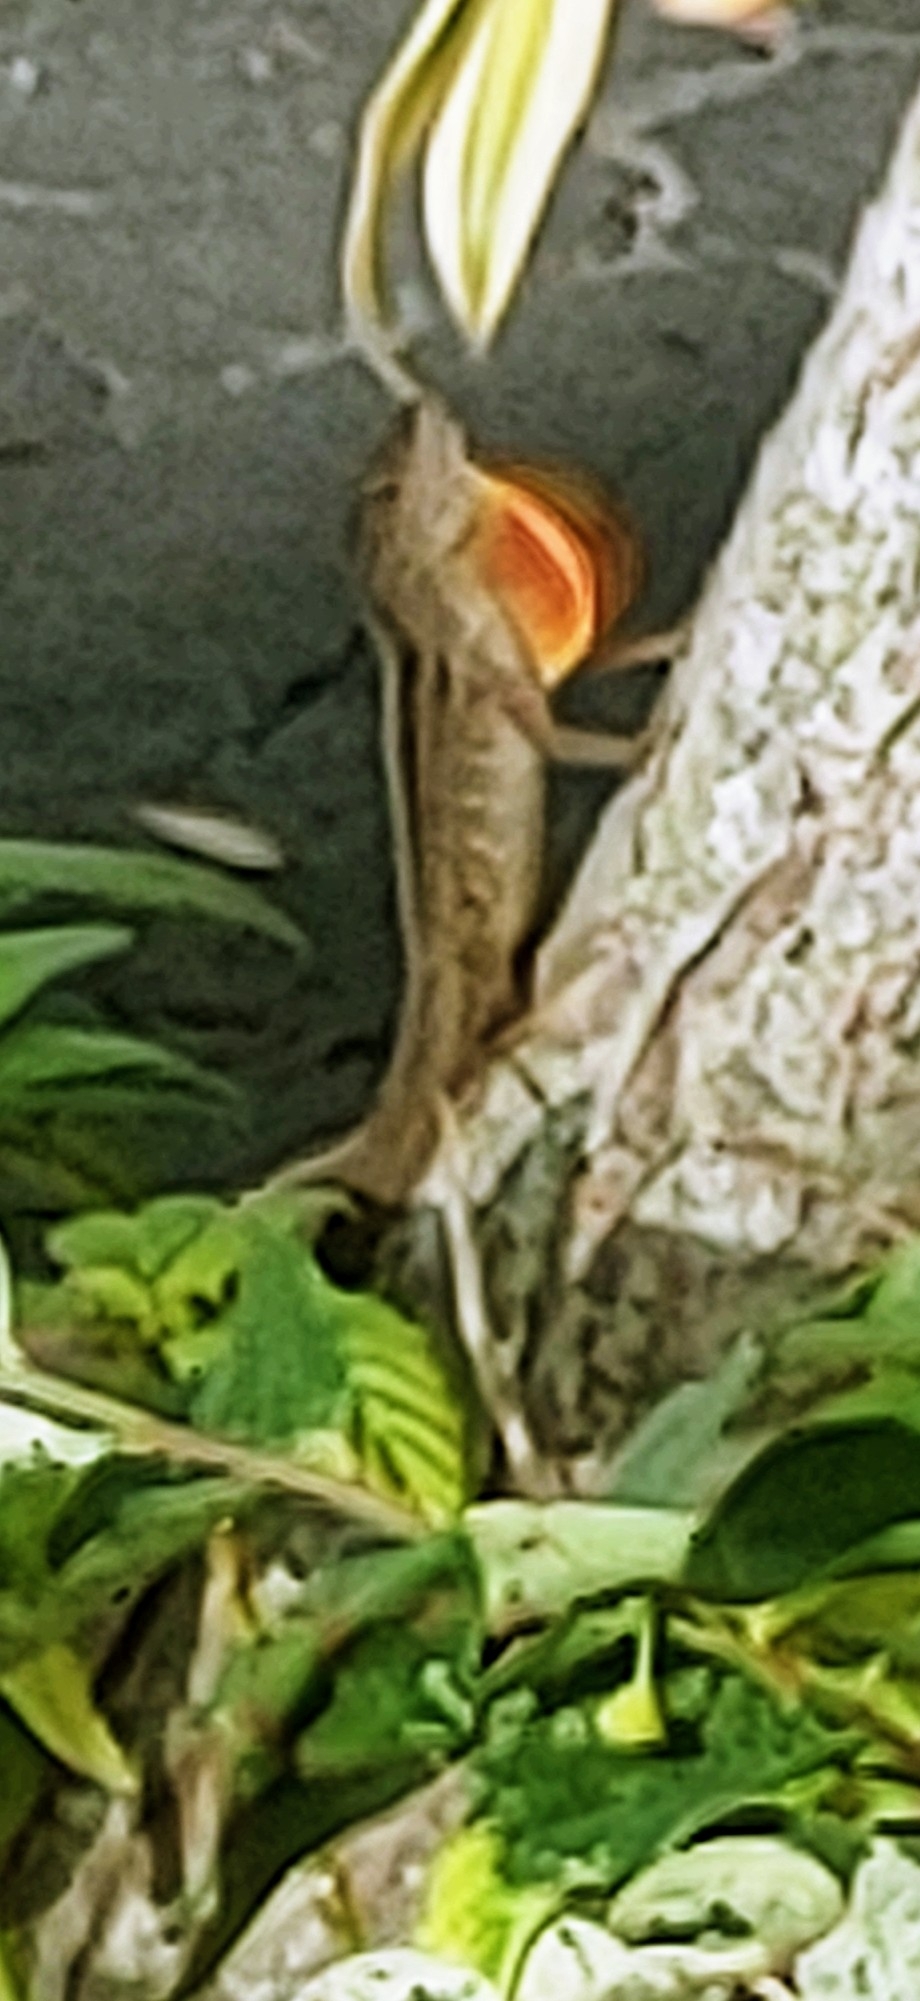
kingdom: Animalia
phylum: Chordata
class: Squamata
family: Dactyloidae
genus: Anolis
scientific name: Anolis sagrei
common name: Brown anole
